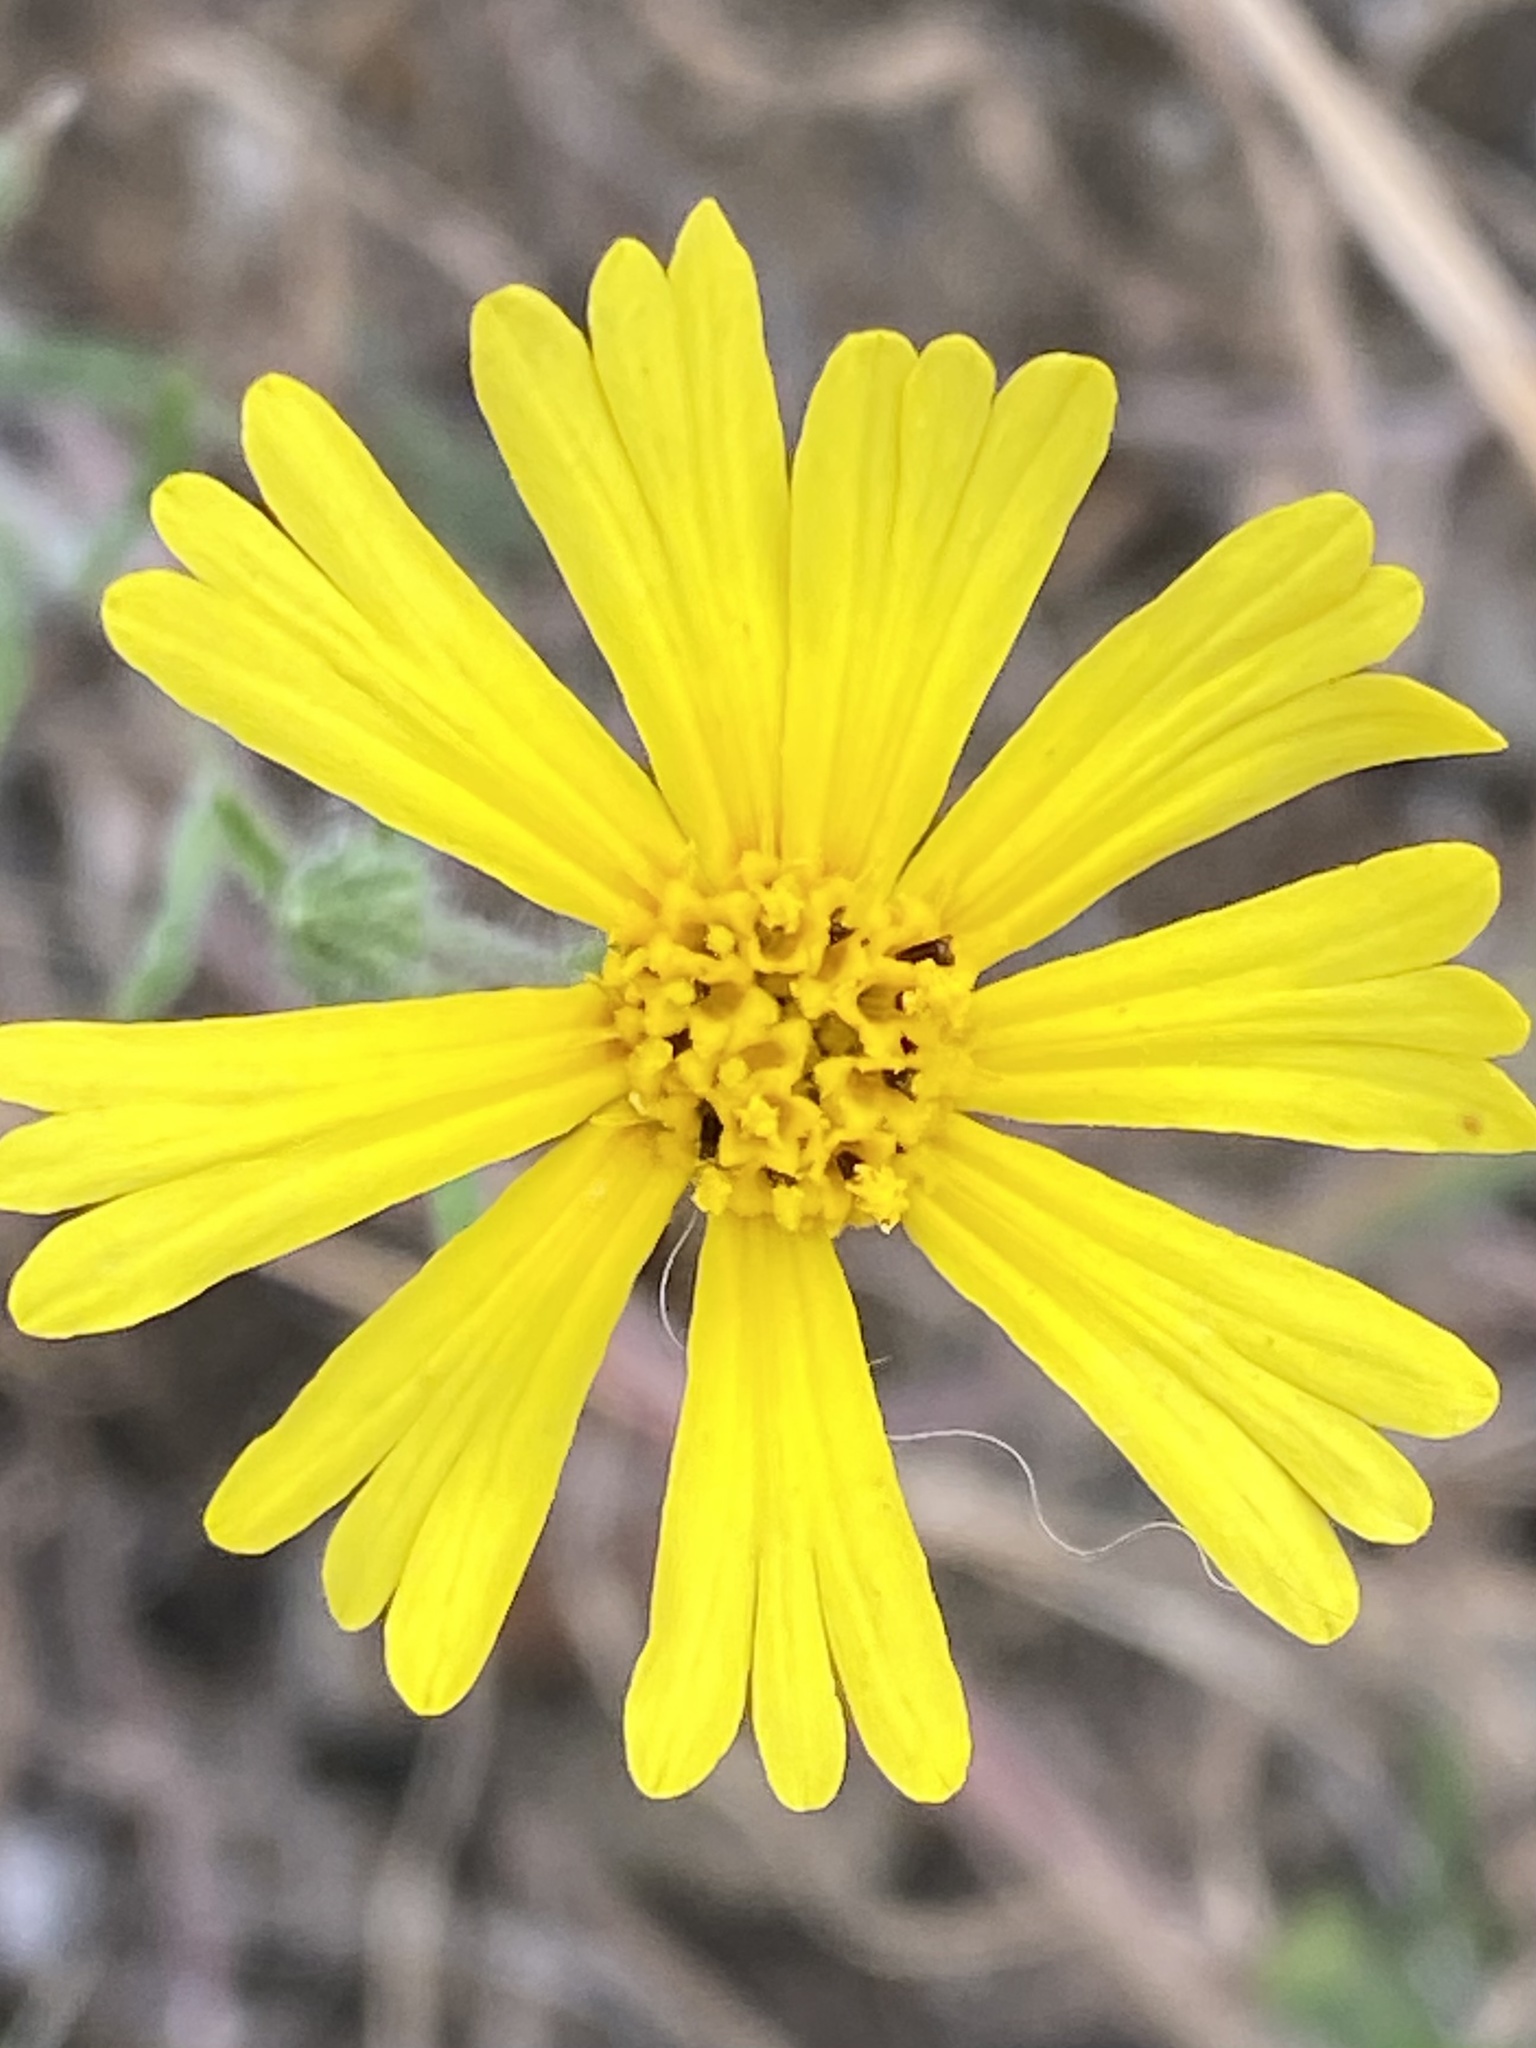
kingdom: Plantae
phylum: Tracheophyta
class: Magnoliopsida
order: Asterales
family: Asteraceae
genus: Madia
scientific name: Madia elegans
